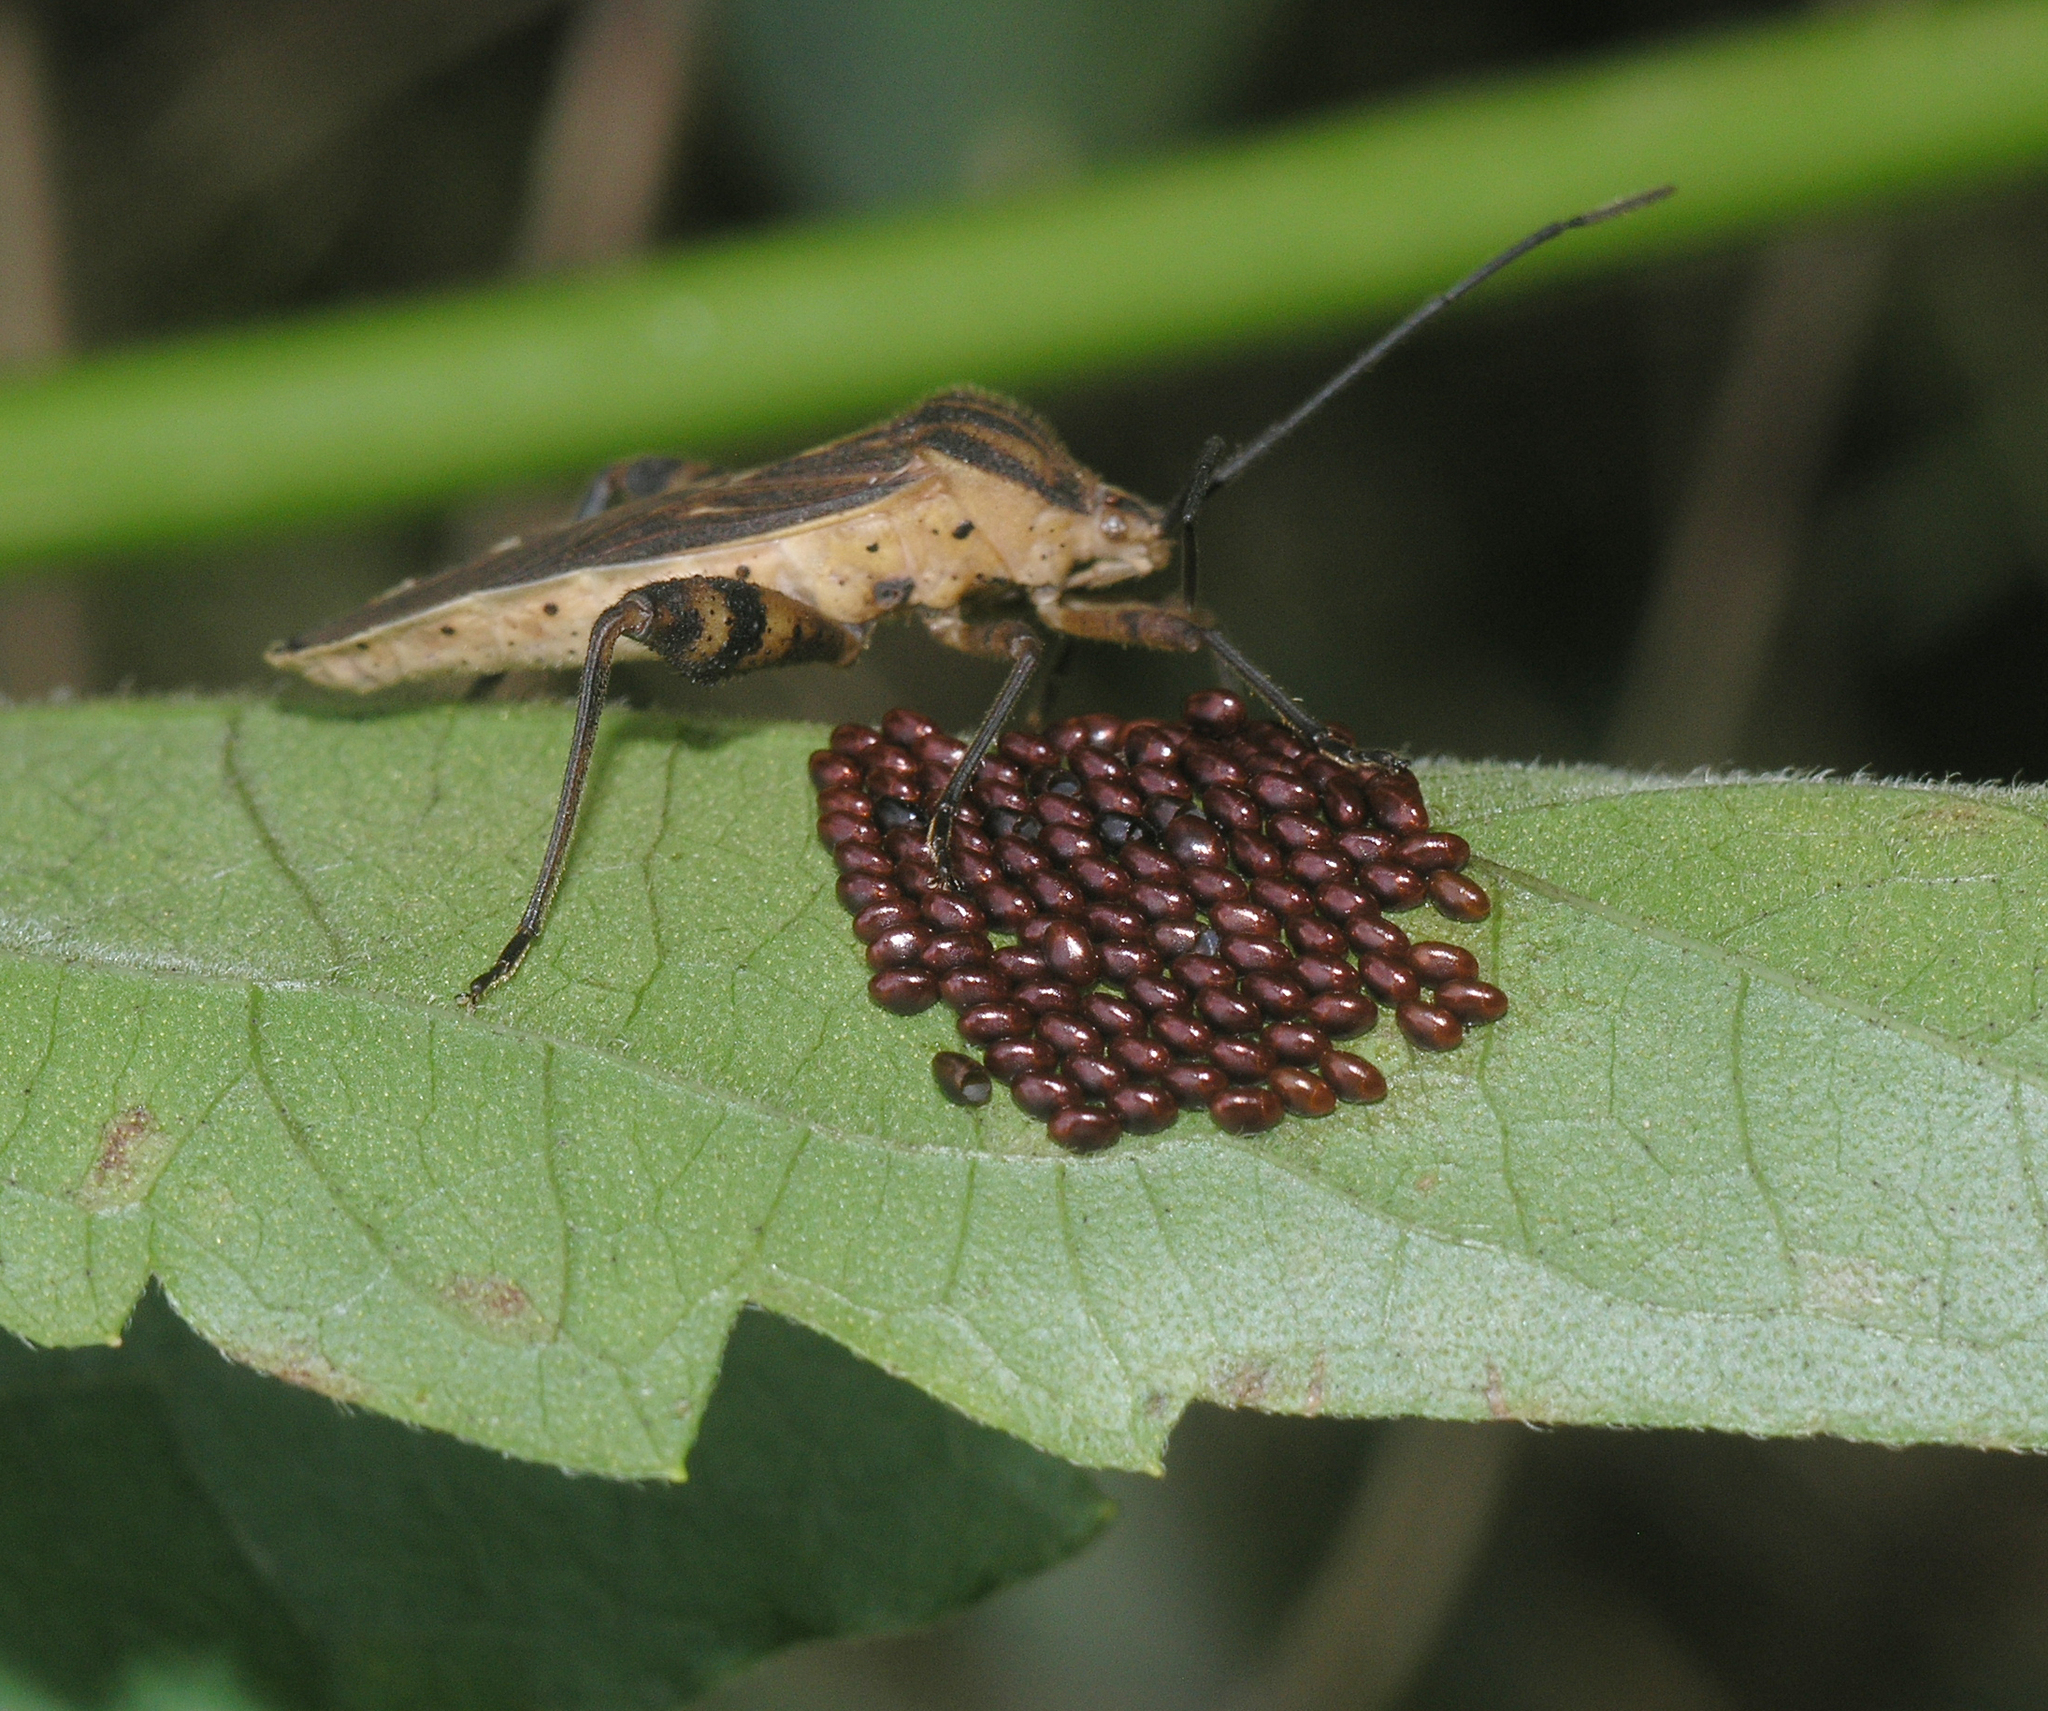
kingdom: Animalia
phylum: Arthropoda
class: Insecta
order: Hemiptera
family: Coreidae
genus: Physomerus
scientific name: Physomerus grossipes
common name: Squash bug
